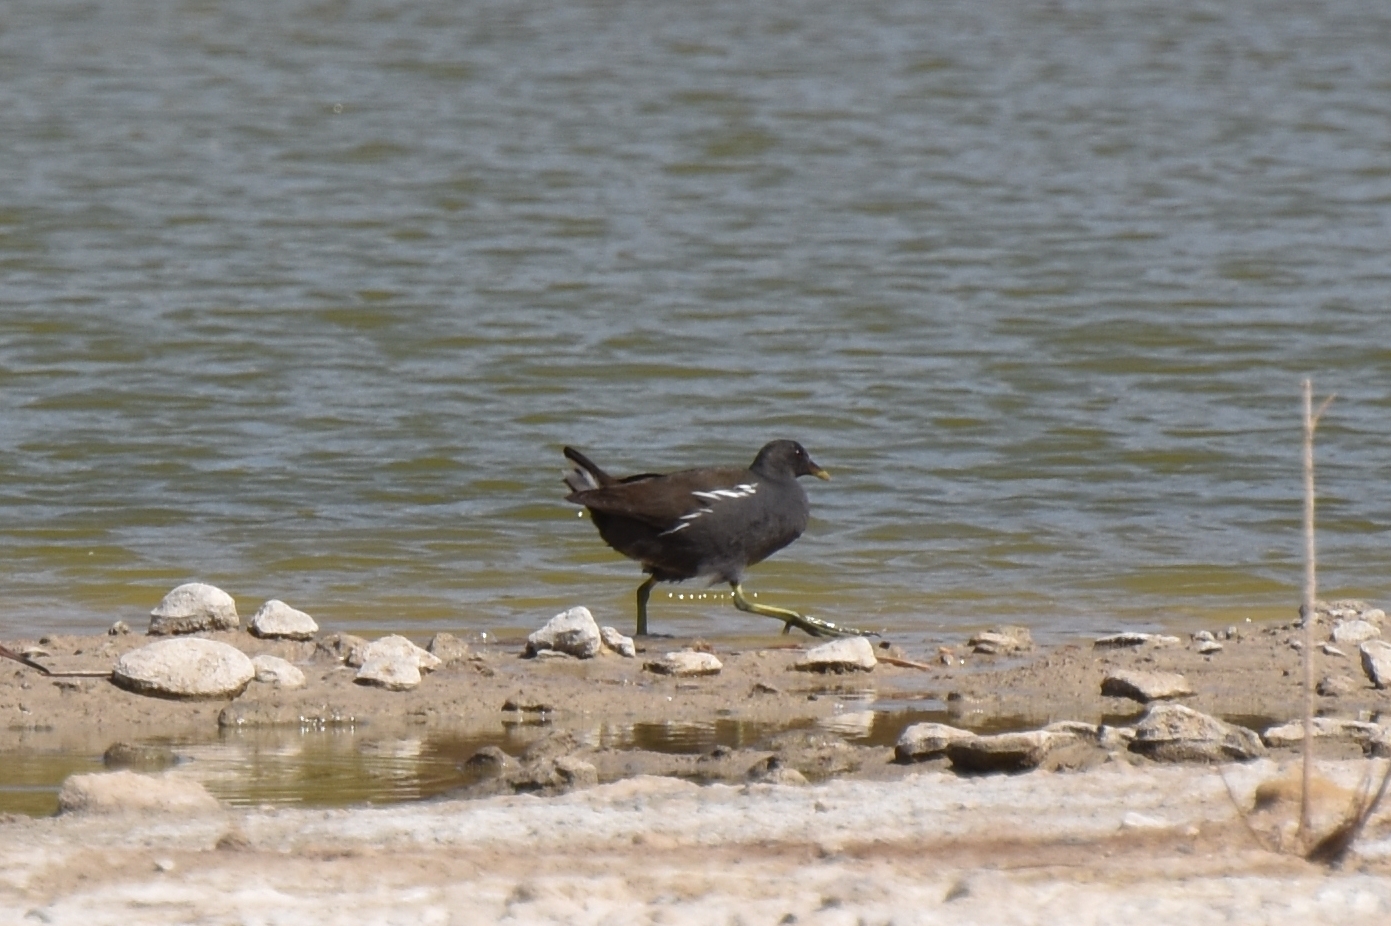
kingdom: Animalia
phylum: Chordata
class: Aves
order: Gruiformes
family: Rallidae
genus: Gallinula
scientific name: Gallinula chloropus
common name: Common moorhen
